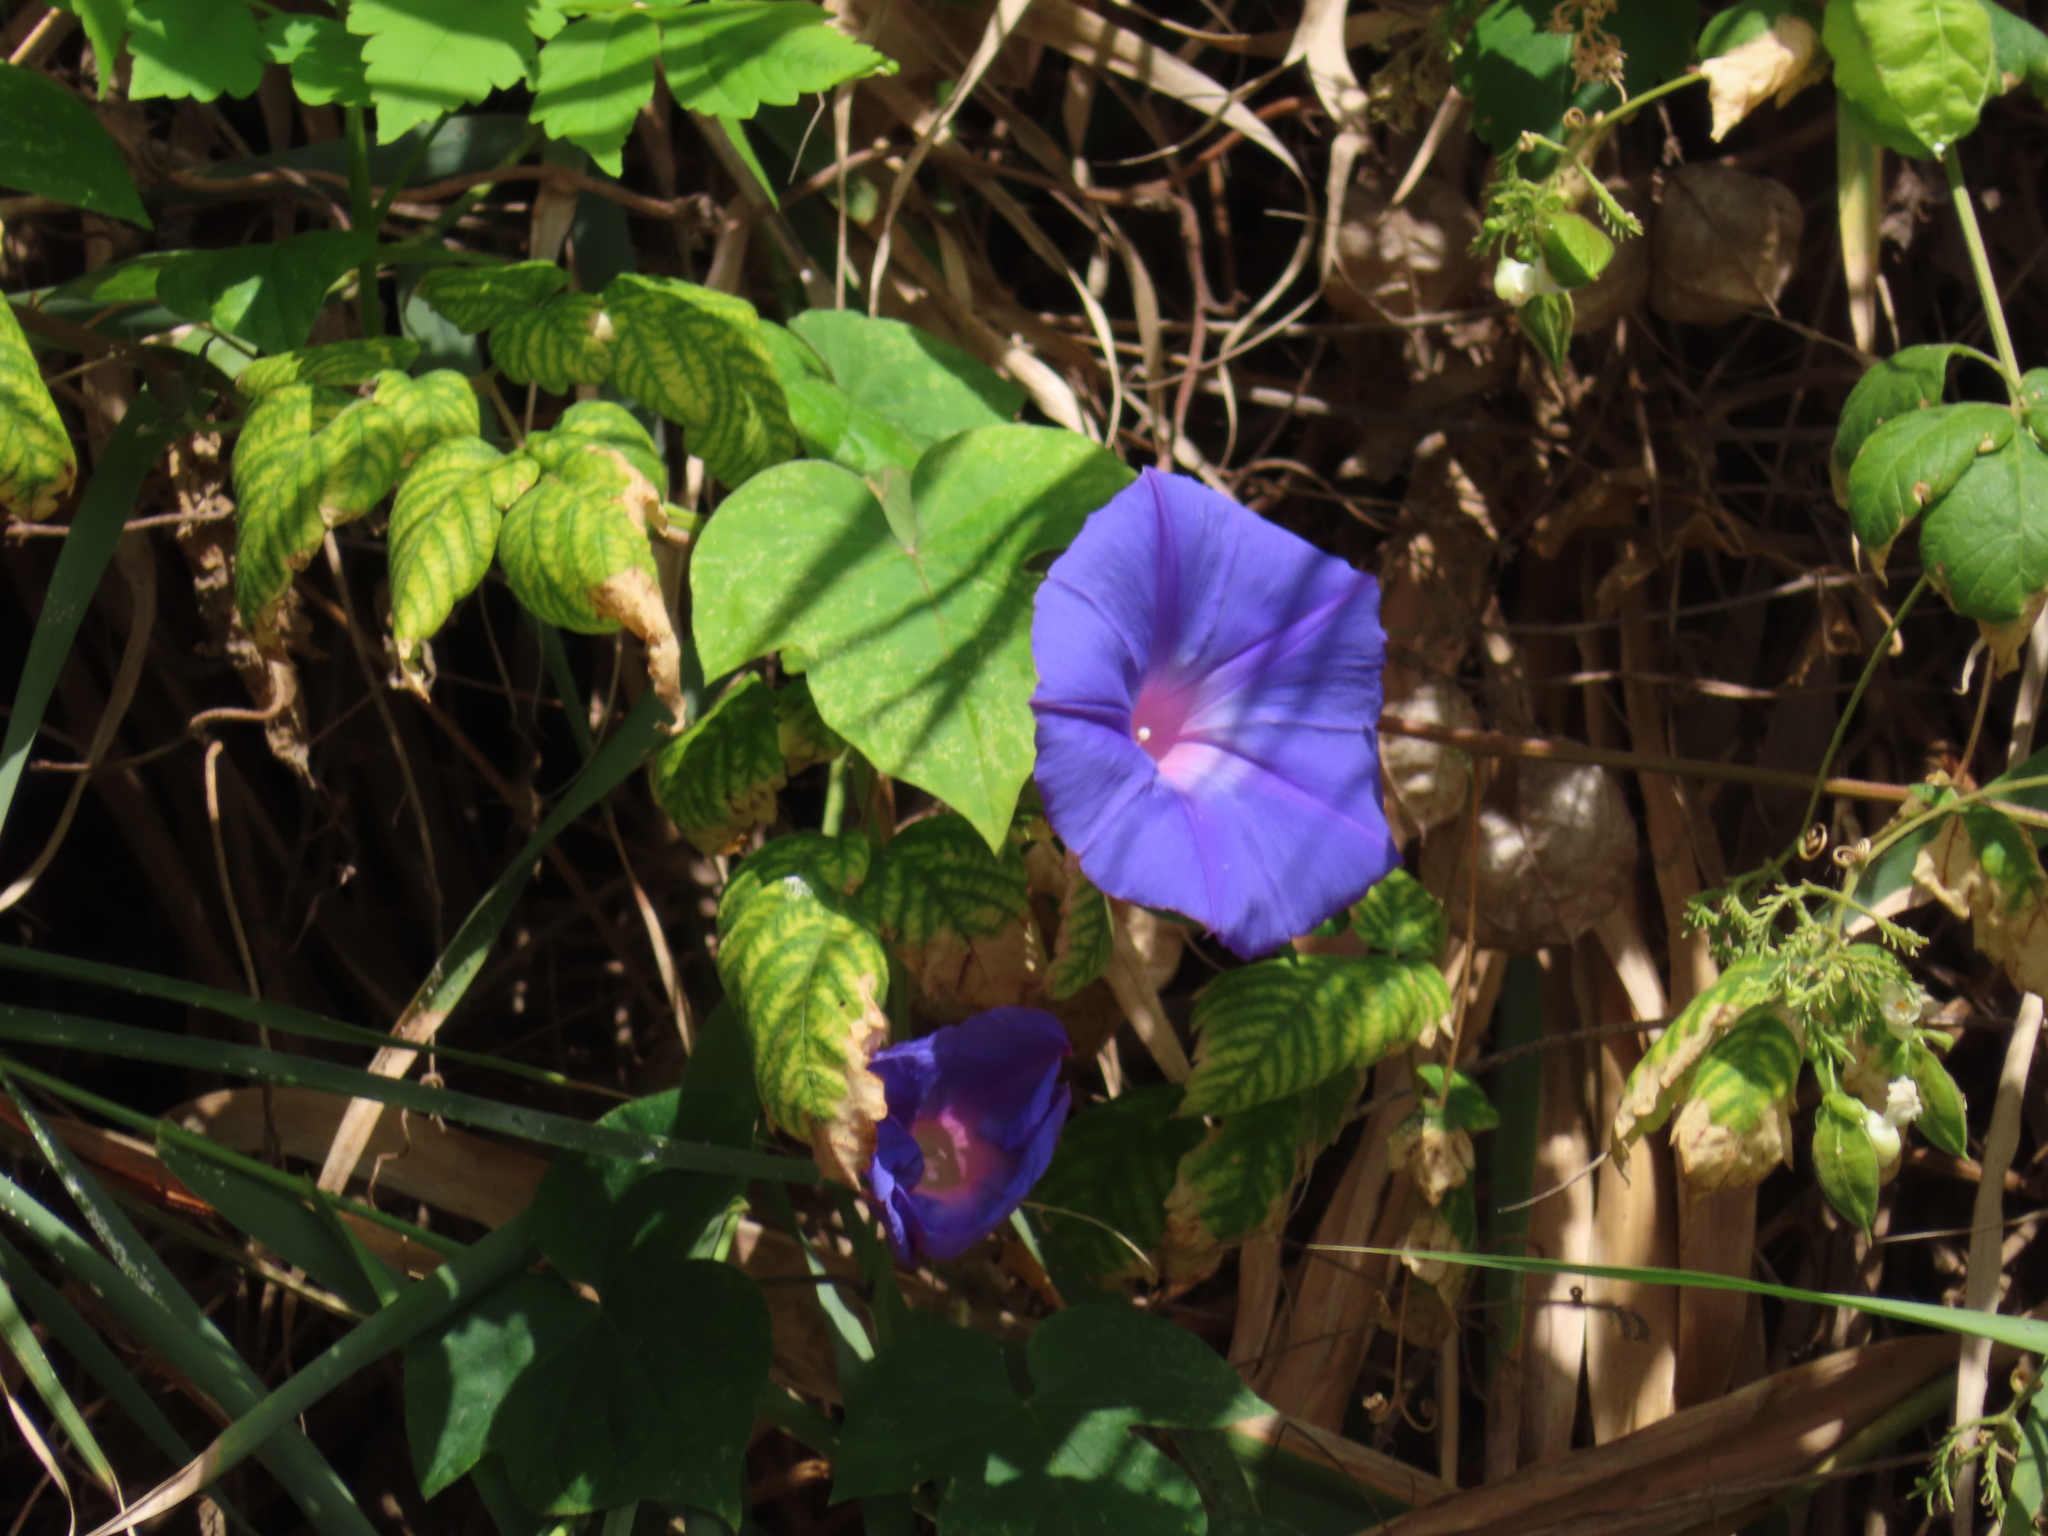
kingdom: Plantae
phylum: Tracheophyta
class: Magnoliopsida
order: Solanales
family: Convolvulaceae
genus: Ipomoea
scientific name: Ipomoea indica
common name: Blue dawnflower
